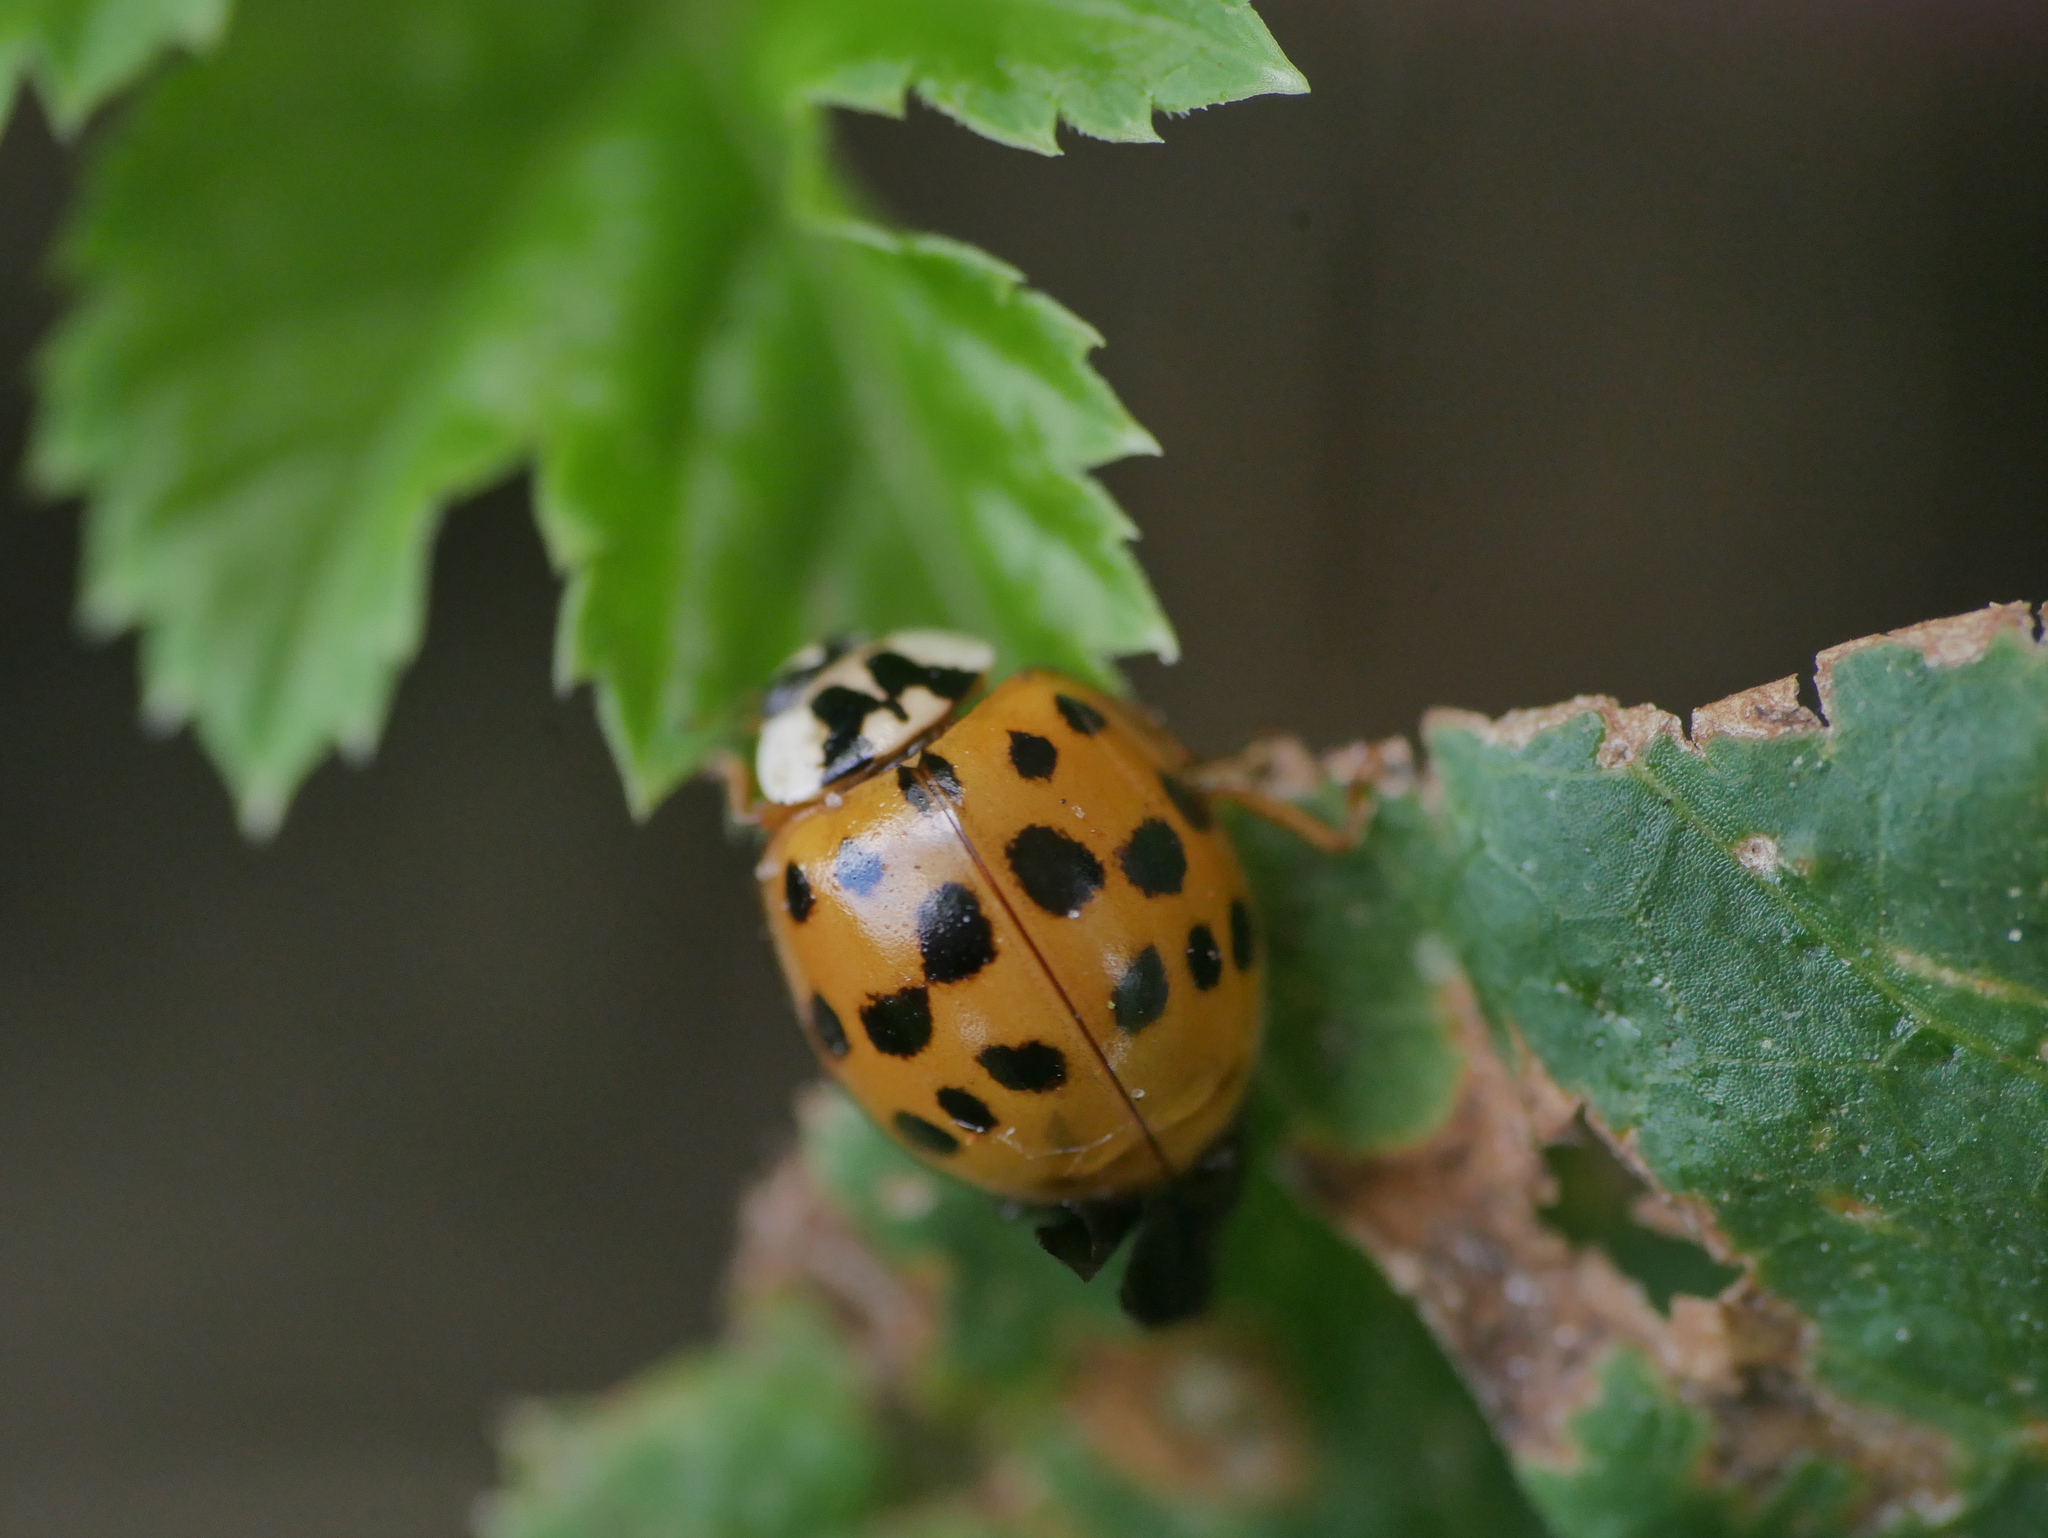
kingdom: Animalia
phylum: Arthropoda
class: Insecta
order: Coleoptera
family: Coccinellidae
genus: Harmonia
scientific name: Harmonia axyridis
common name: Harlequin ladybird
